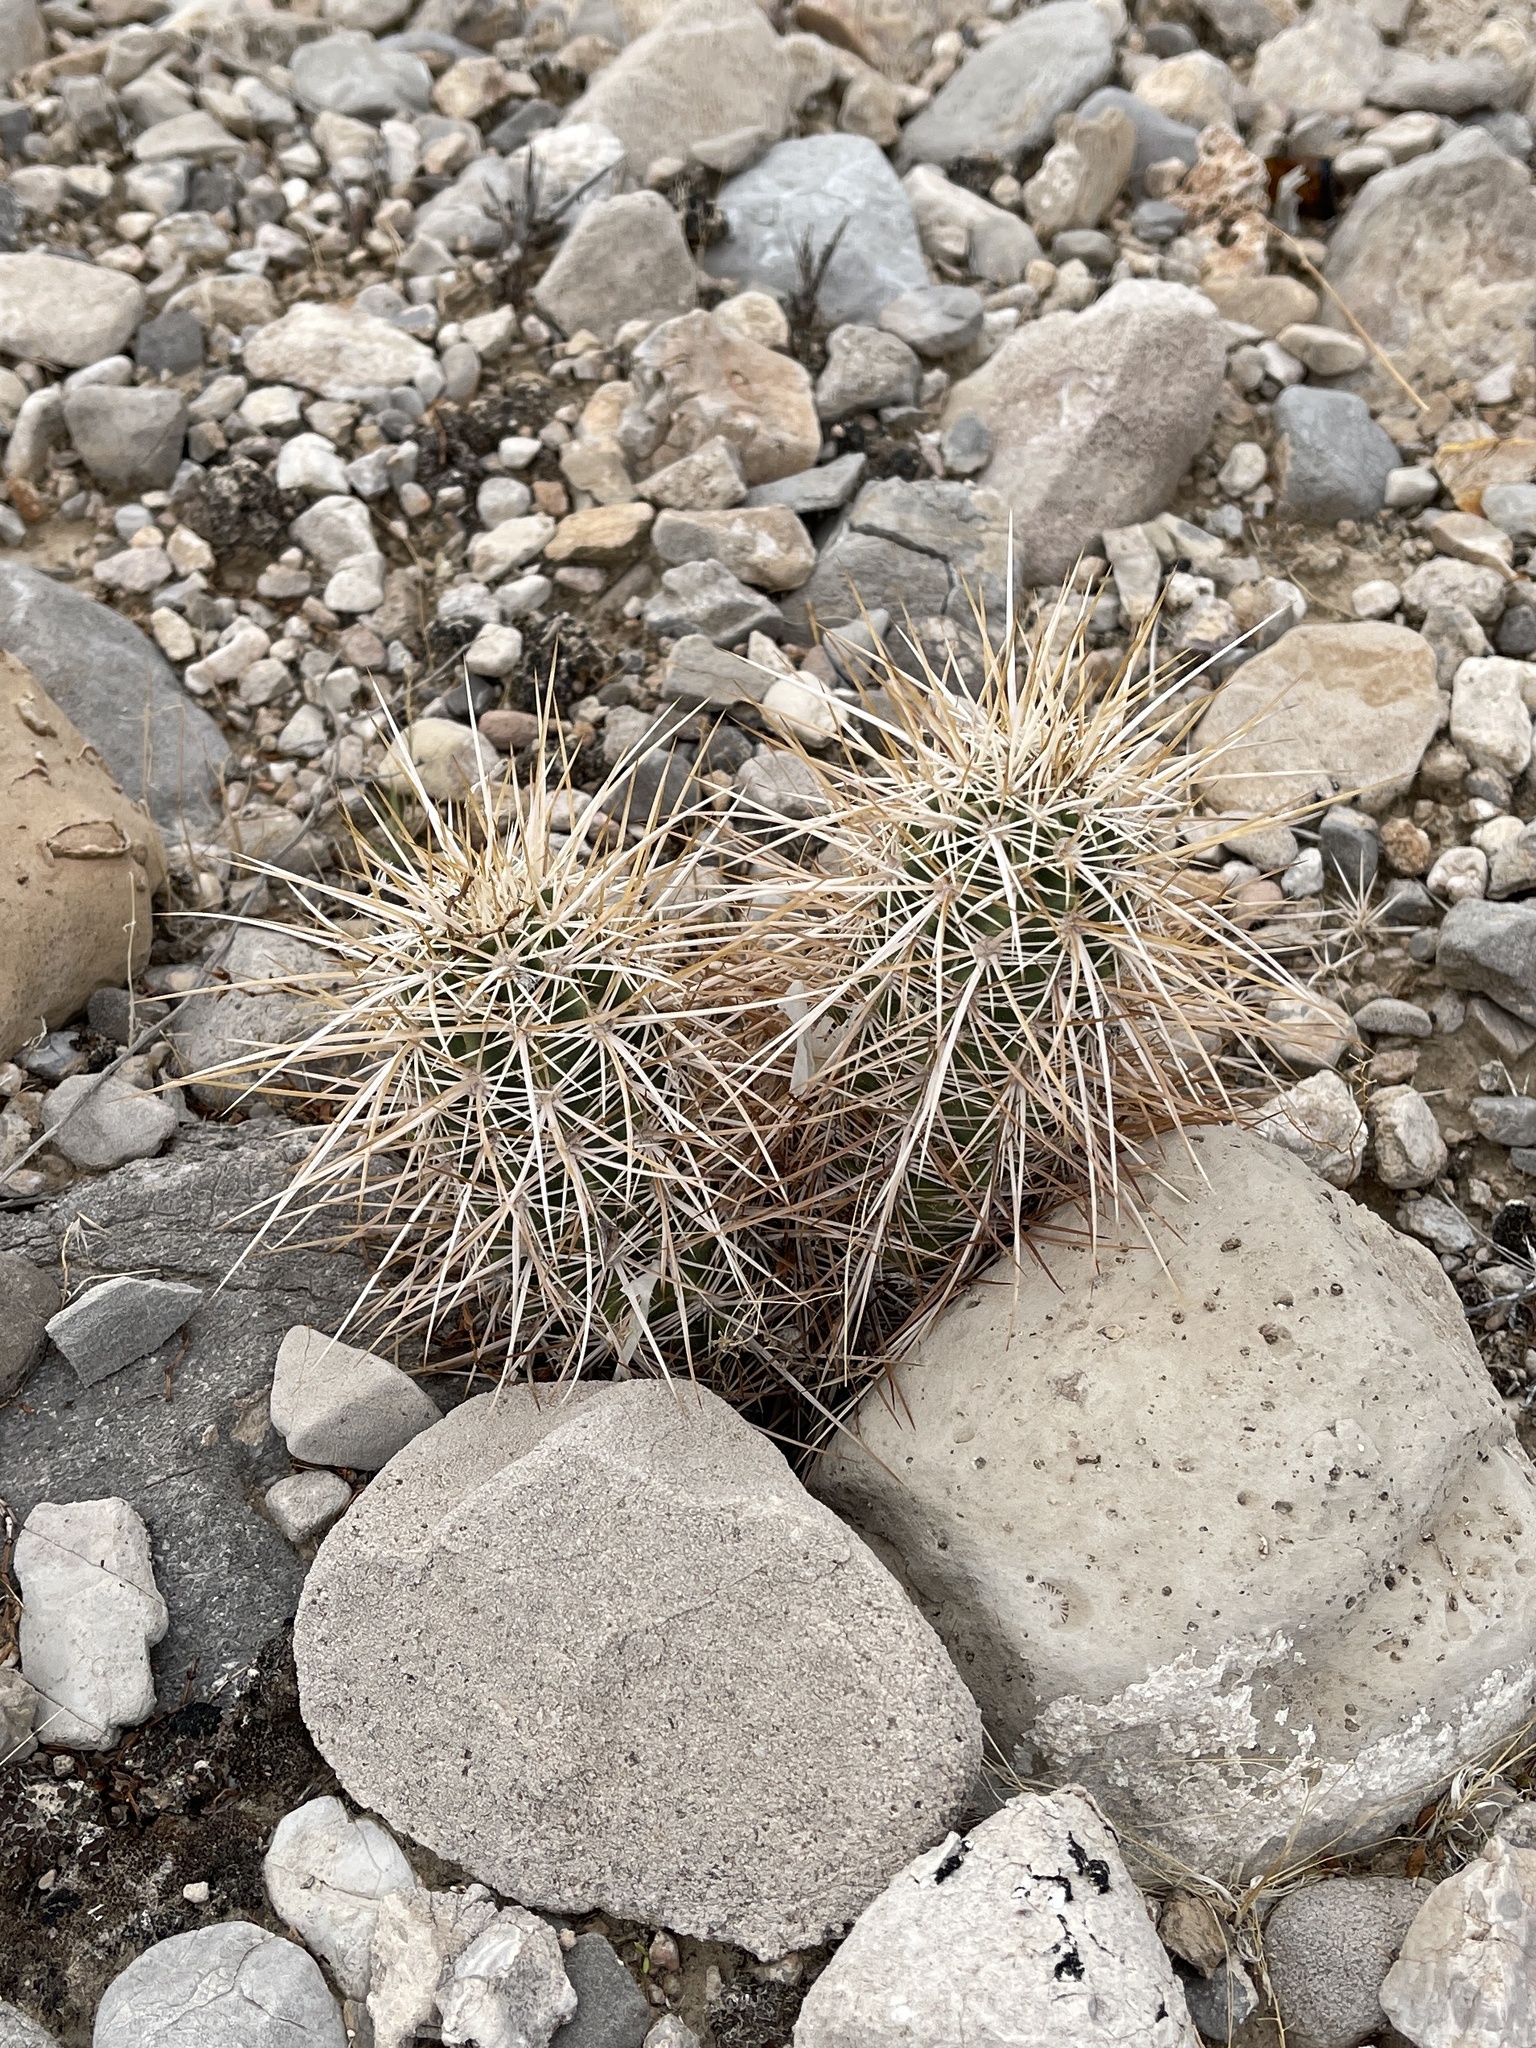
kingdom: Plantae
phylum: Tracheophyta
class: Magnoliopsida
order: Caryophyllales
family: Cactaceae
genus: Echinocereus
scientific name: Echinocereus engelmannii
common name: Engelmann's hedgehog cactus
